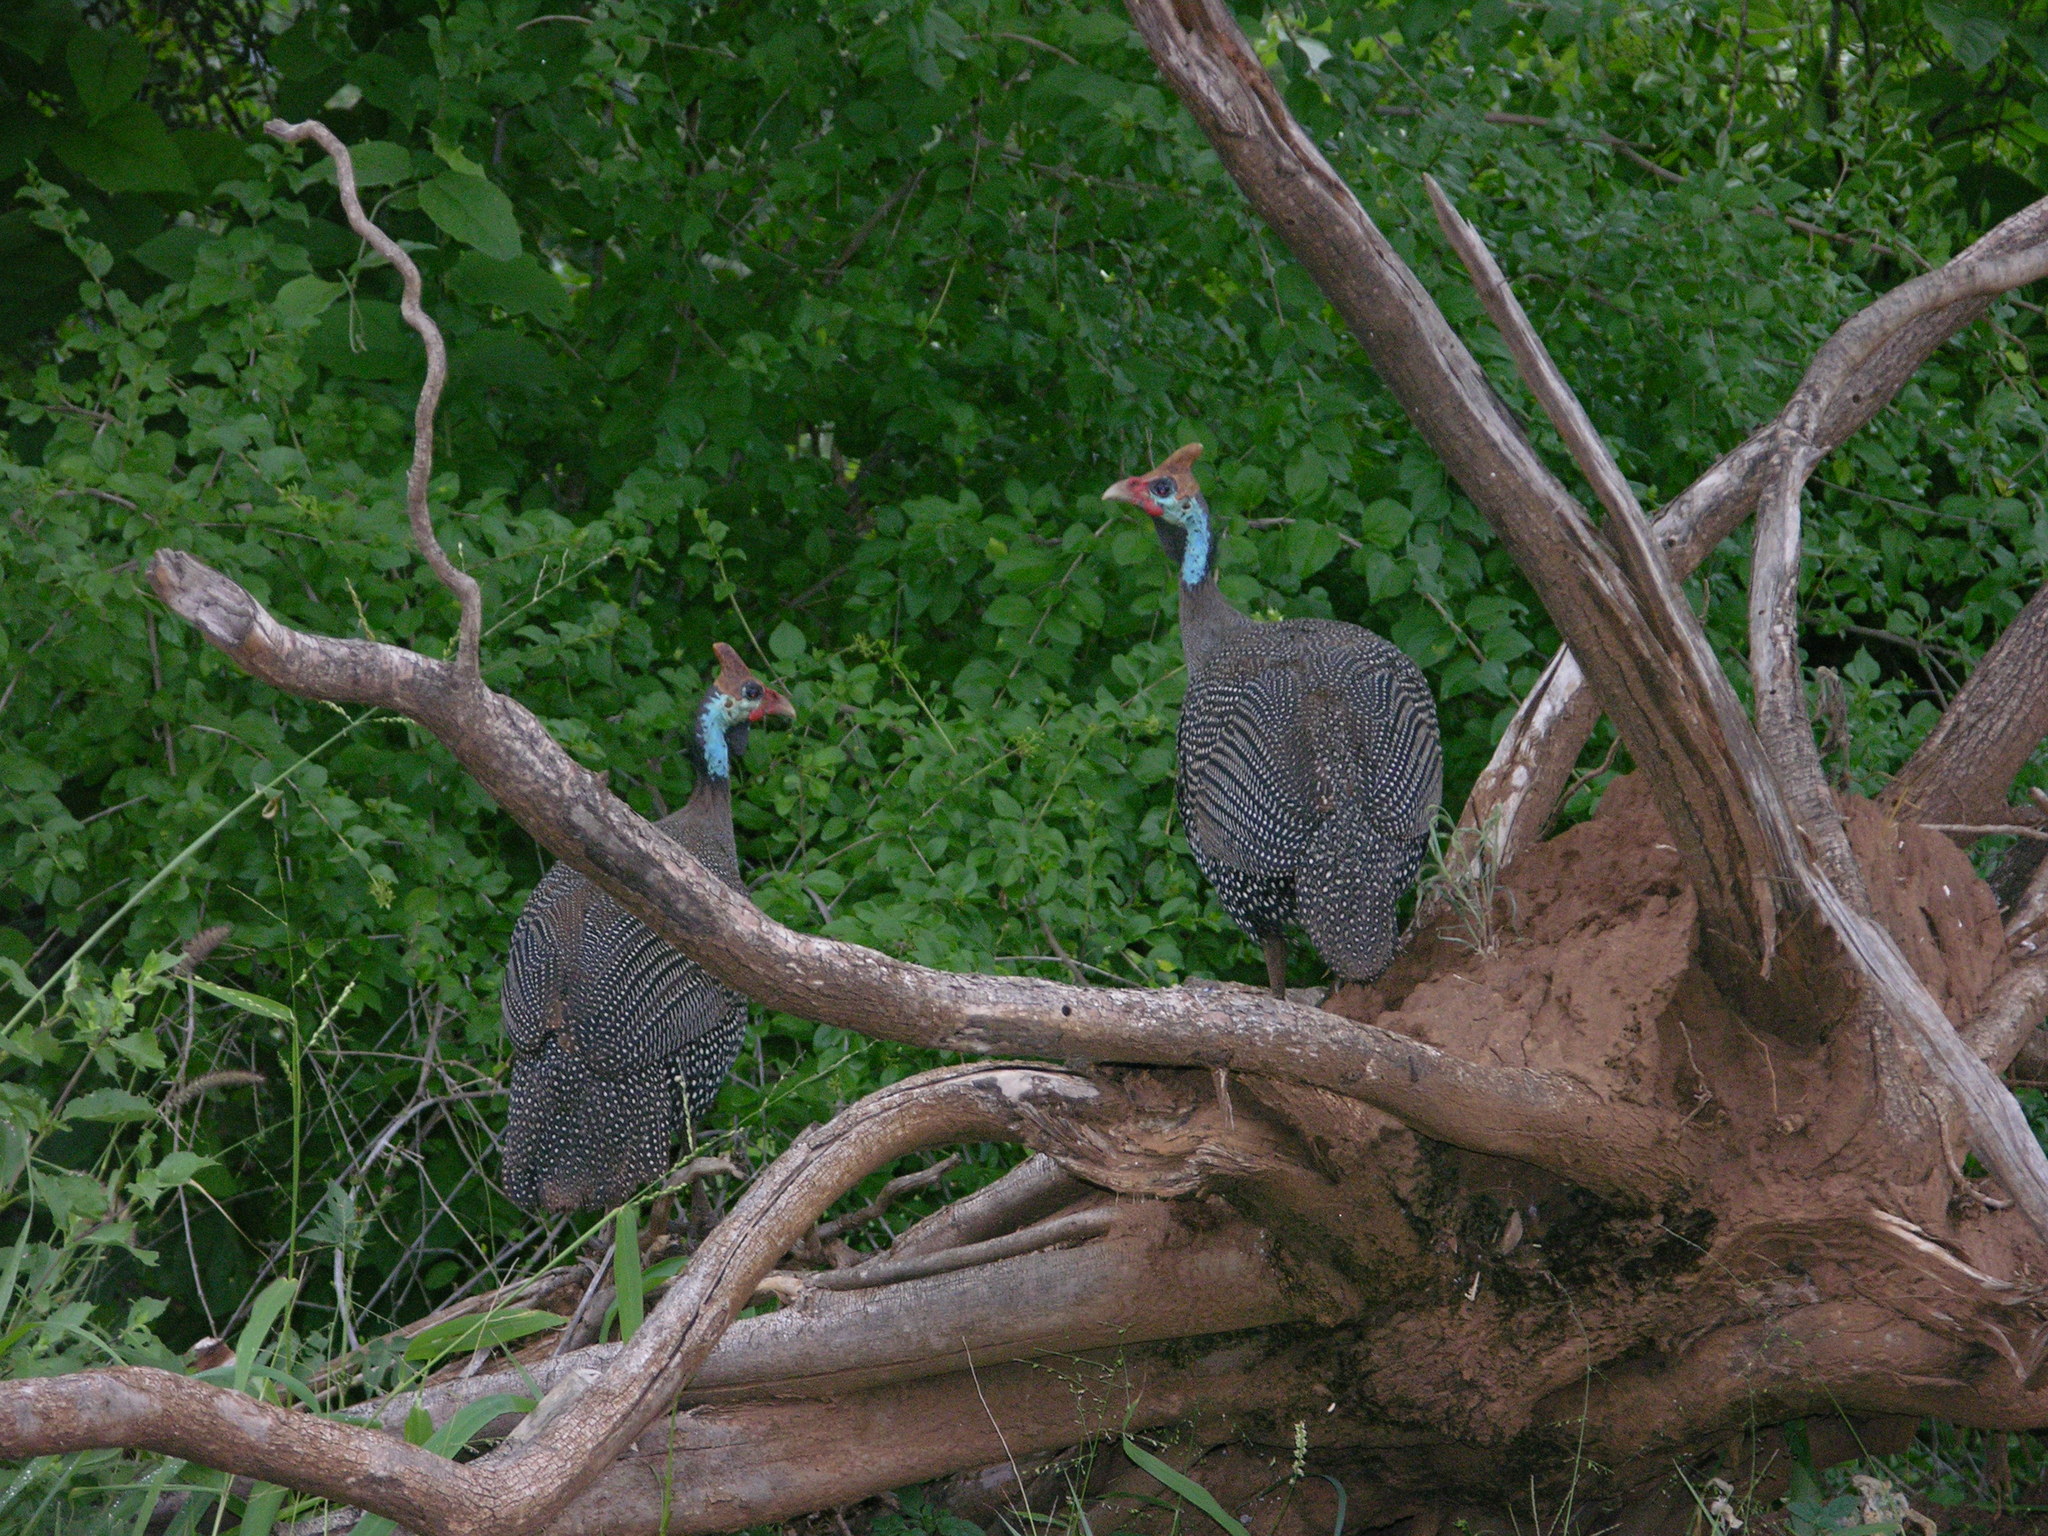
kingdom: Animalia
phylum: Chordata
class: Aves
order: Galliformes
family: Numididae
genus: Numida
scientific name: Numida meleagris
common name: Helmeted guineafowl
